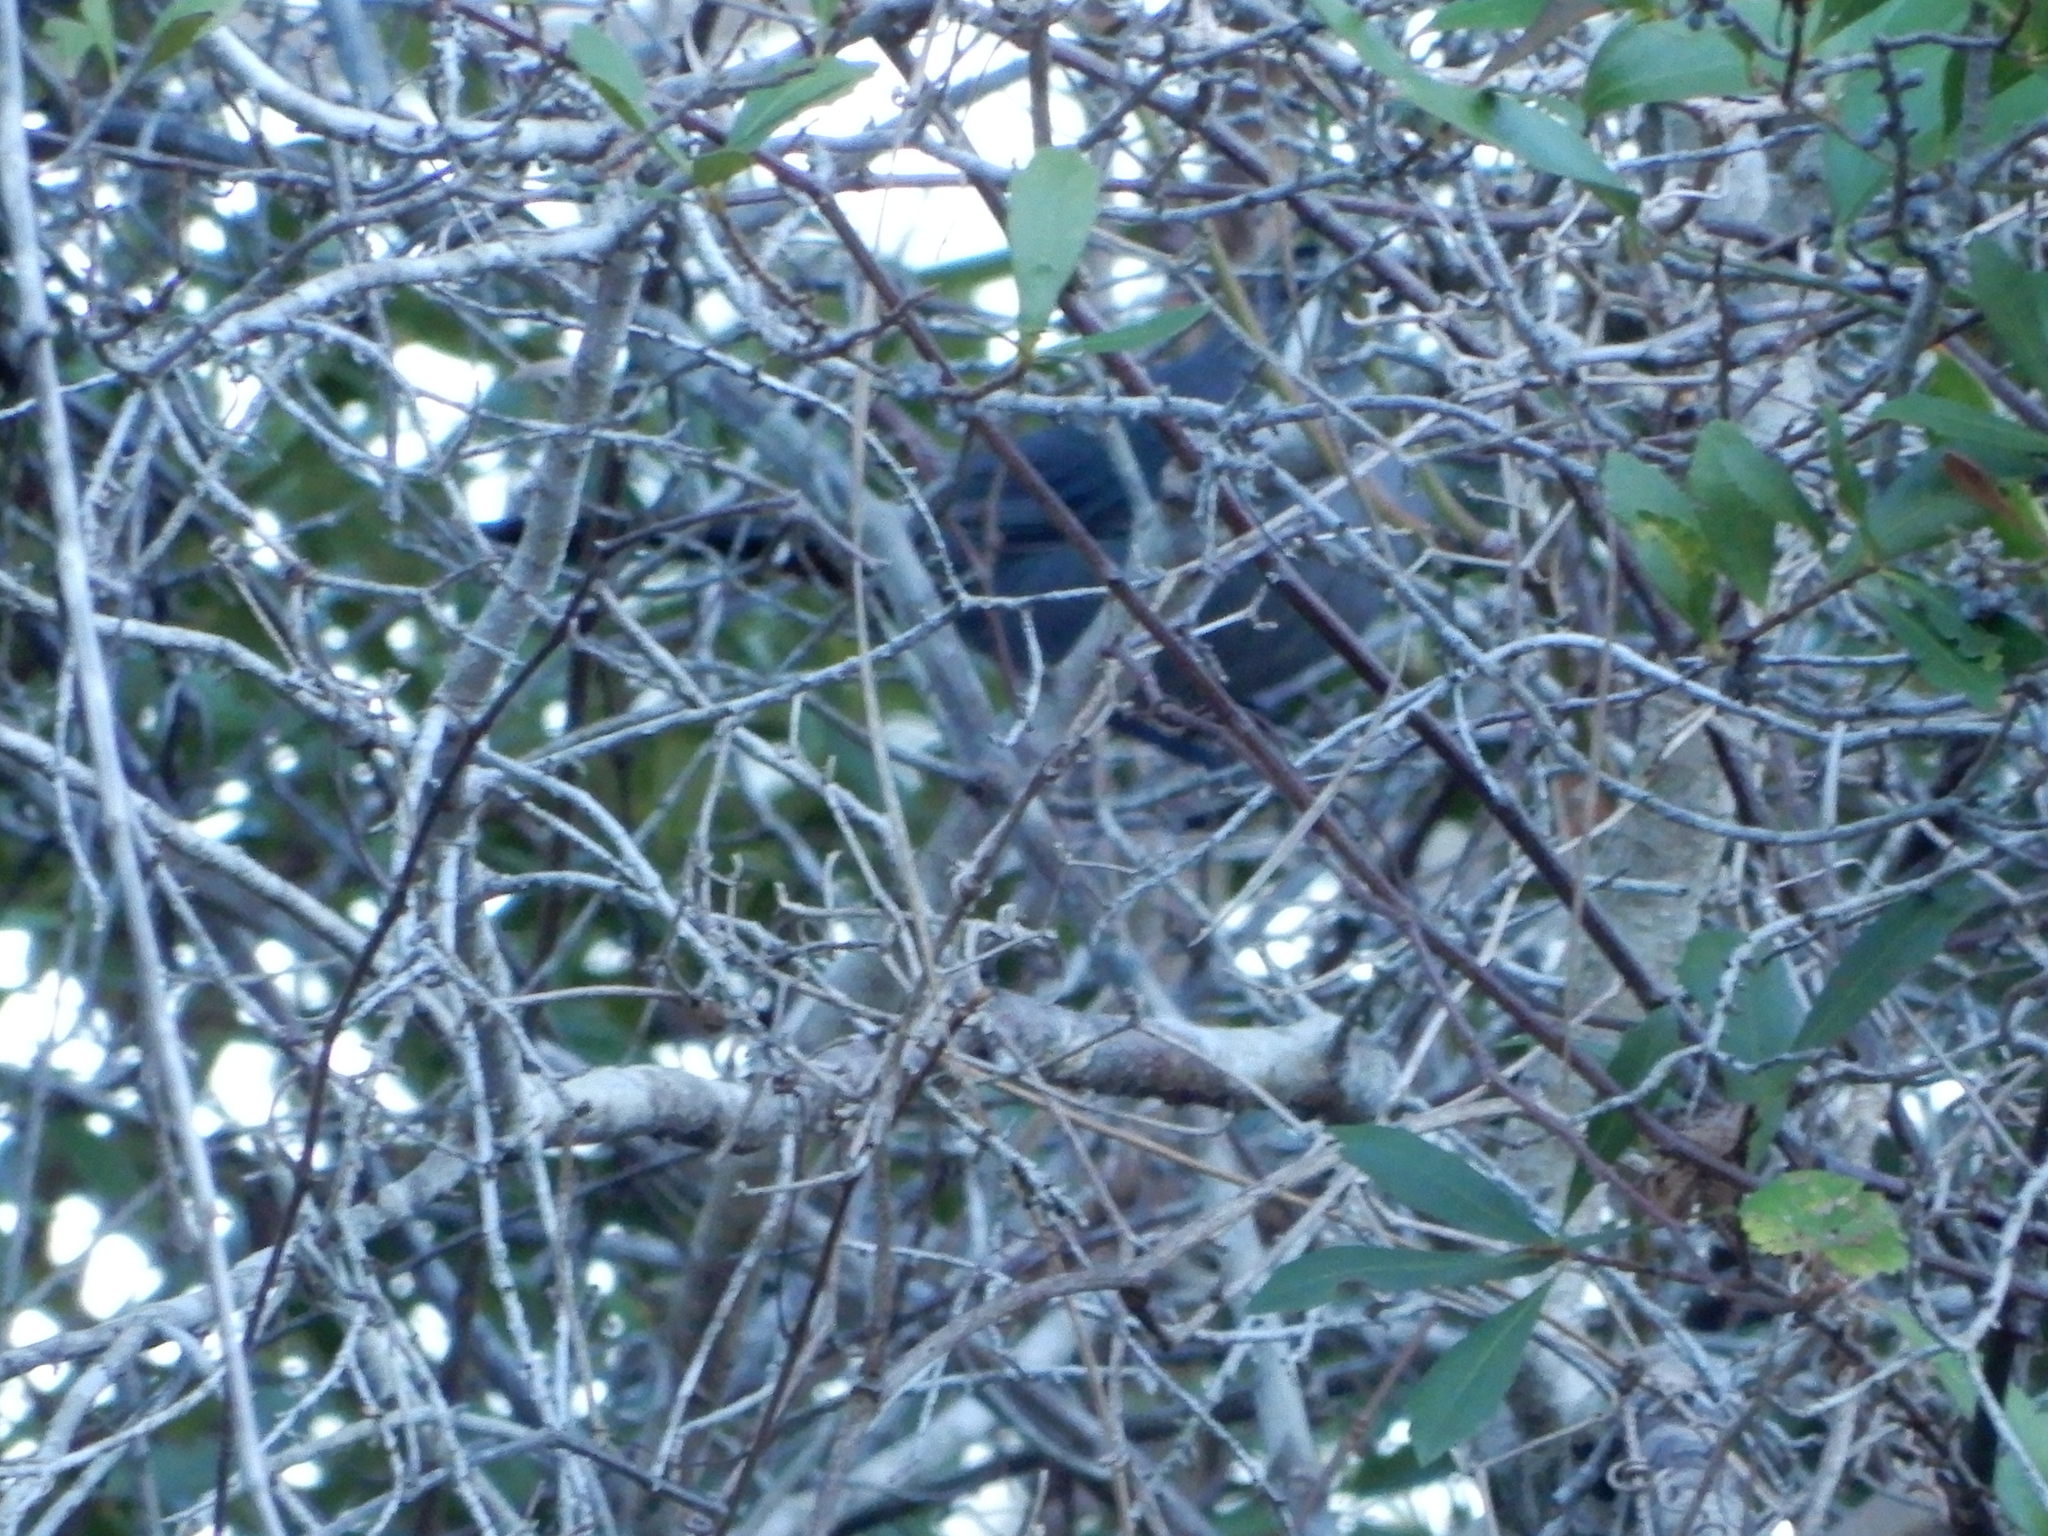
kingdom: Animalia
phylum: Chordata
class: Aves
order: Passeriformes
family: Mimidae
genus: Dumetella
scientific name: Dumetella carolinensis
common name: Gray catbird
